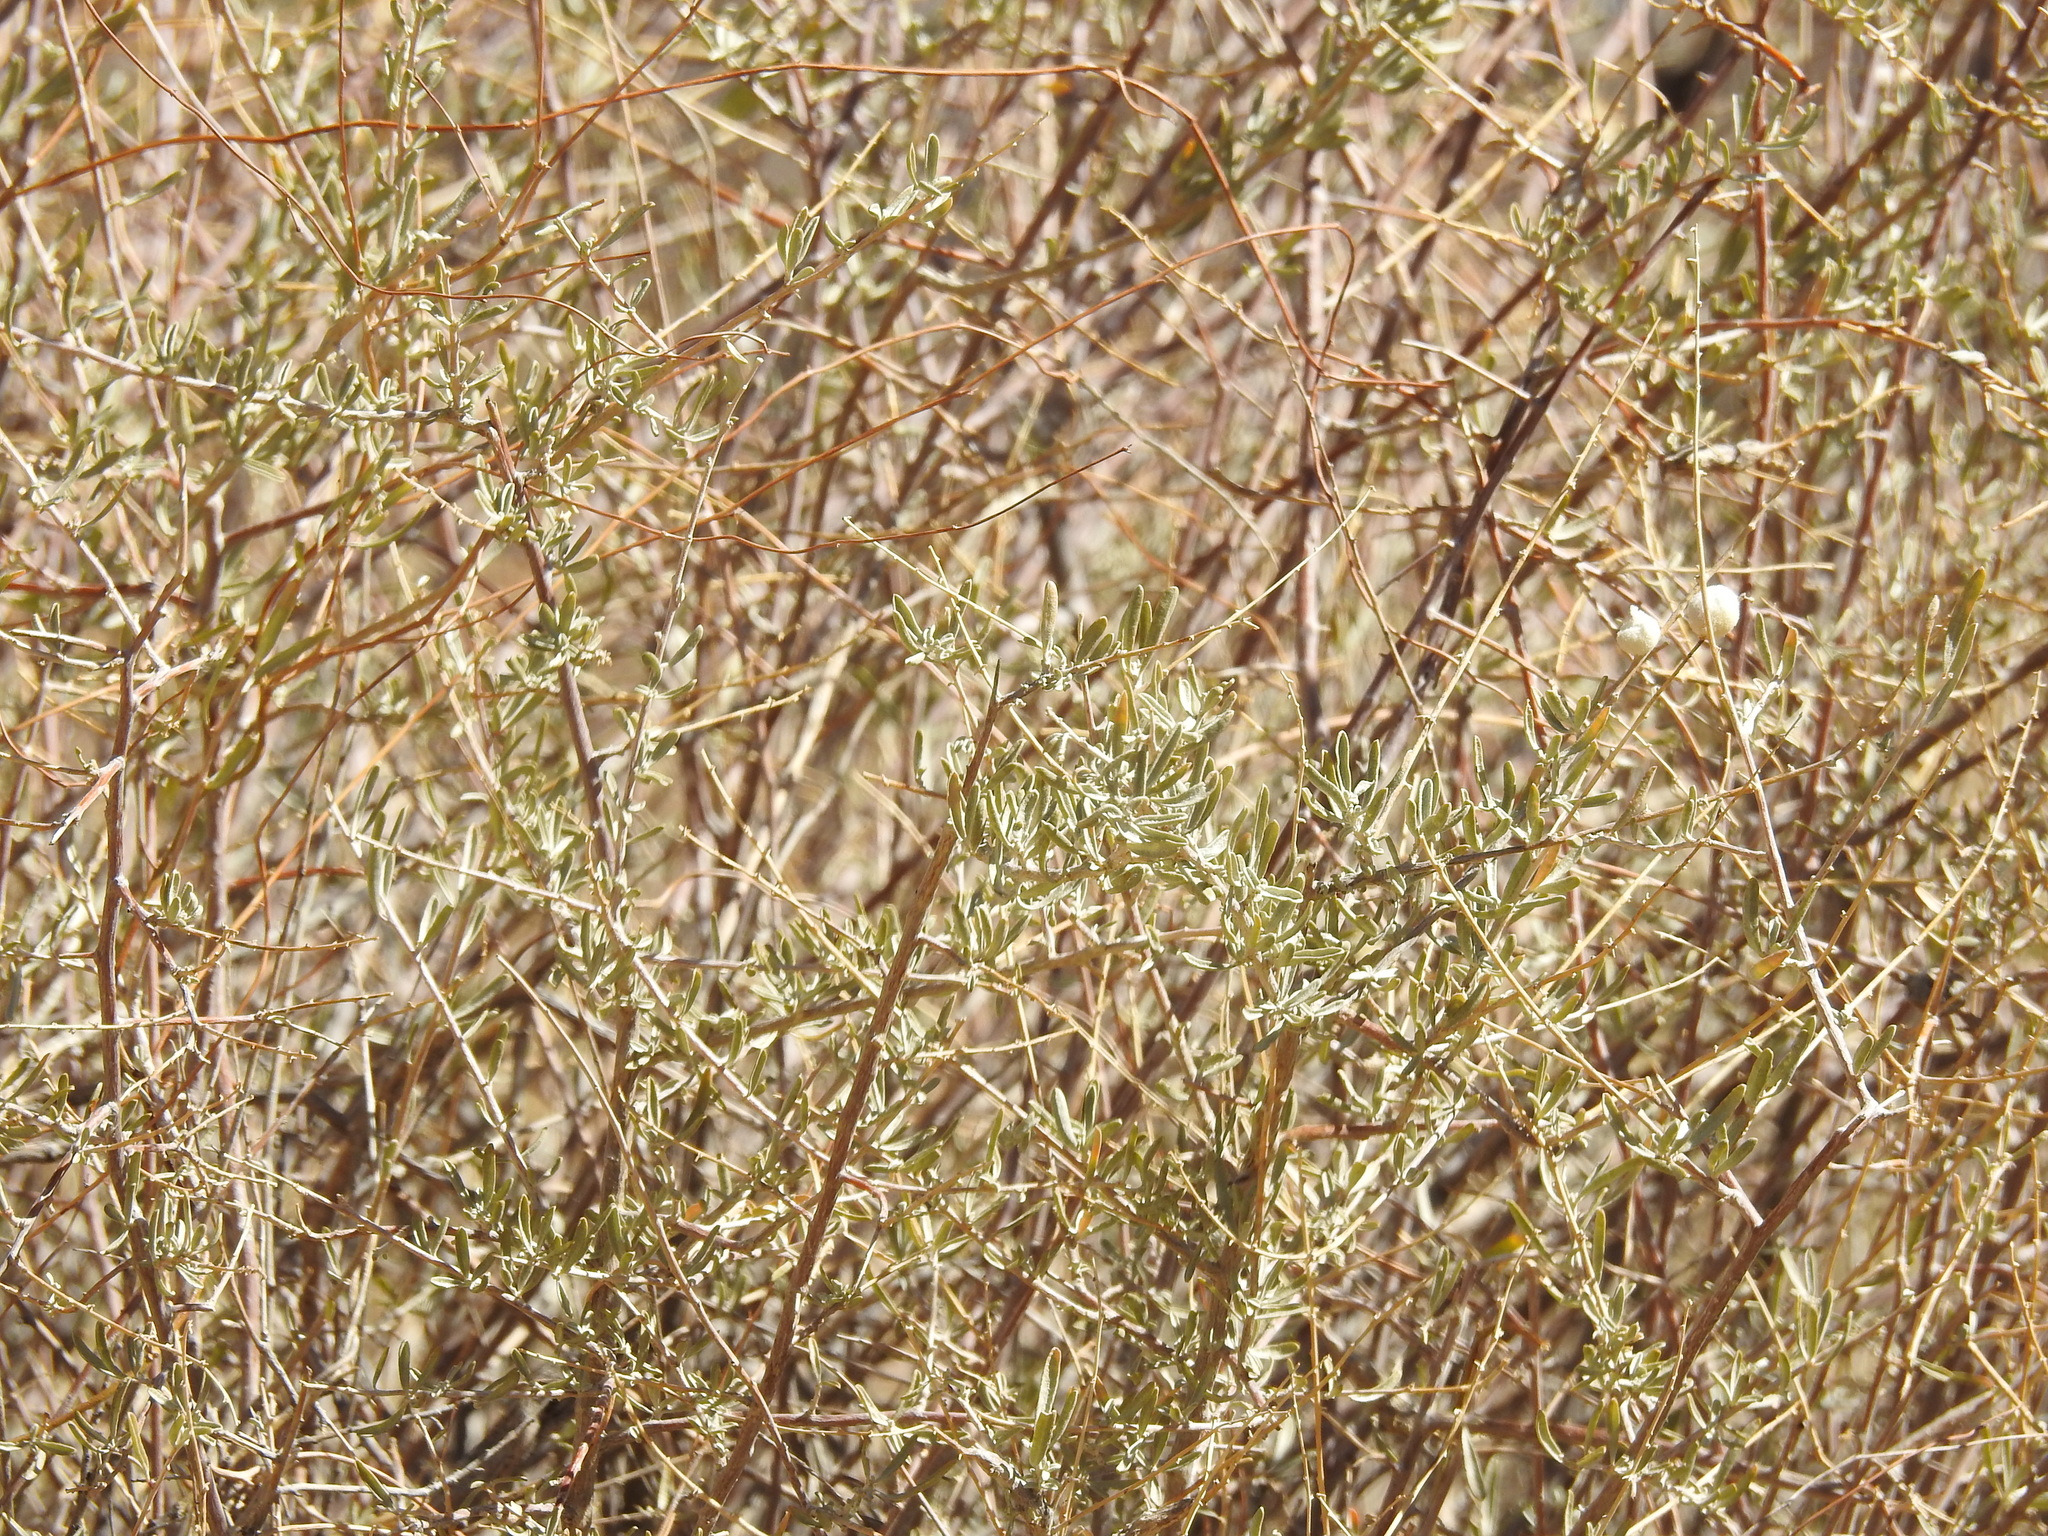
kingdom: Plantae
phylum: Tracheophyta
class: Magnoliopsida
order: Caryophyllales
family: Amaranthaceae
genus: Atriplex
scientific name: Atriplex canescens
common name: Four-wing saltbush
